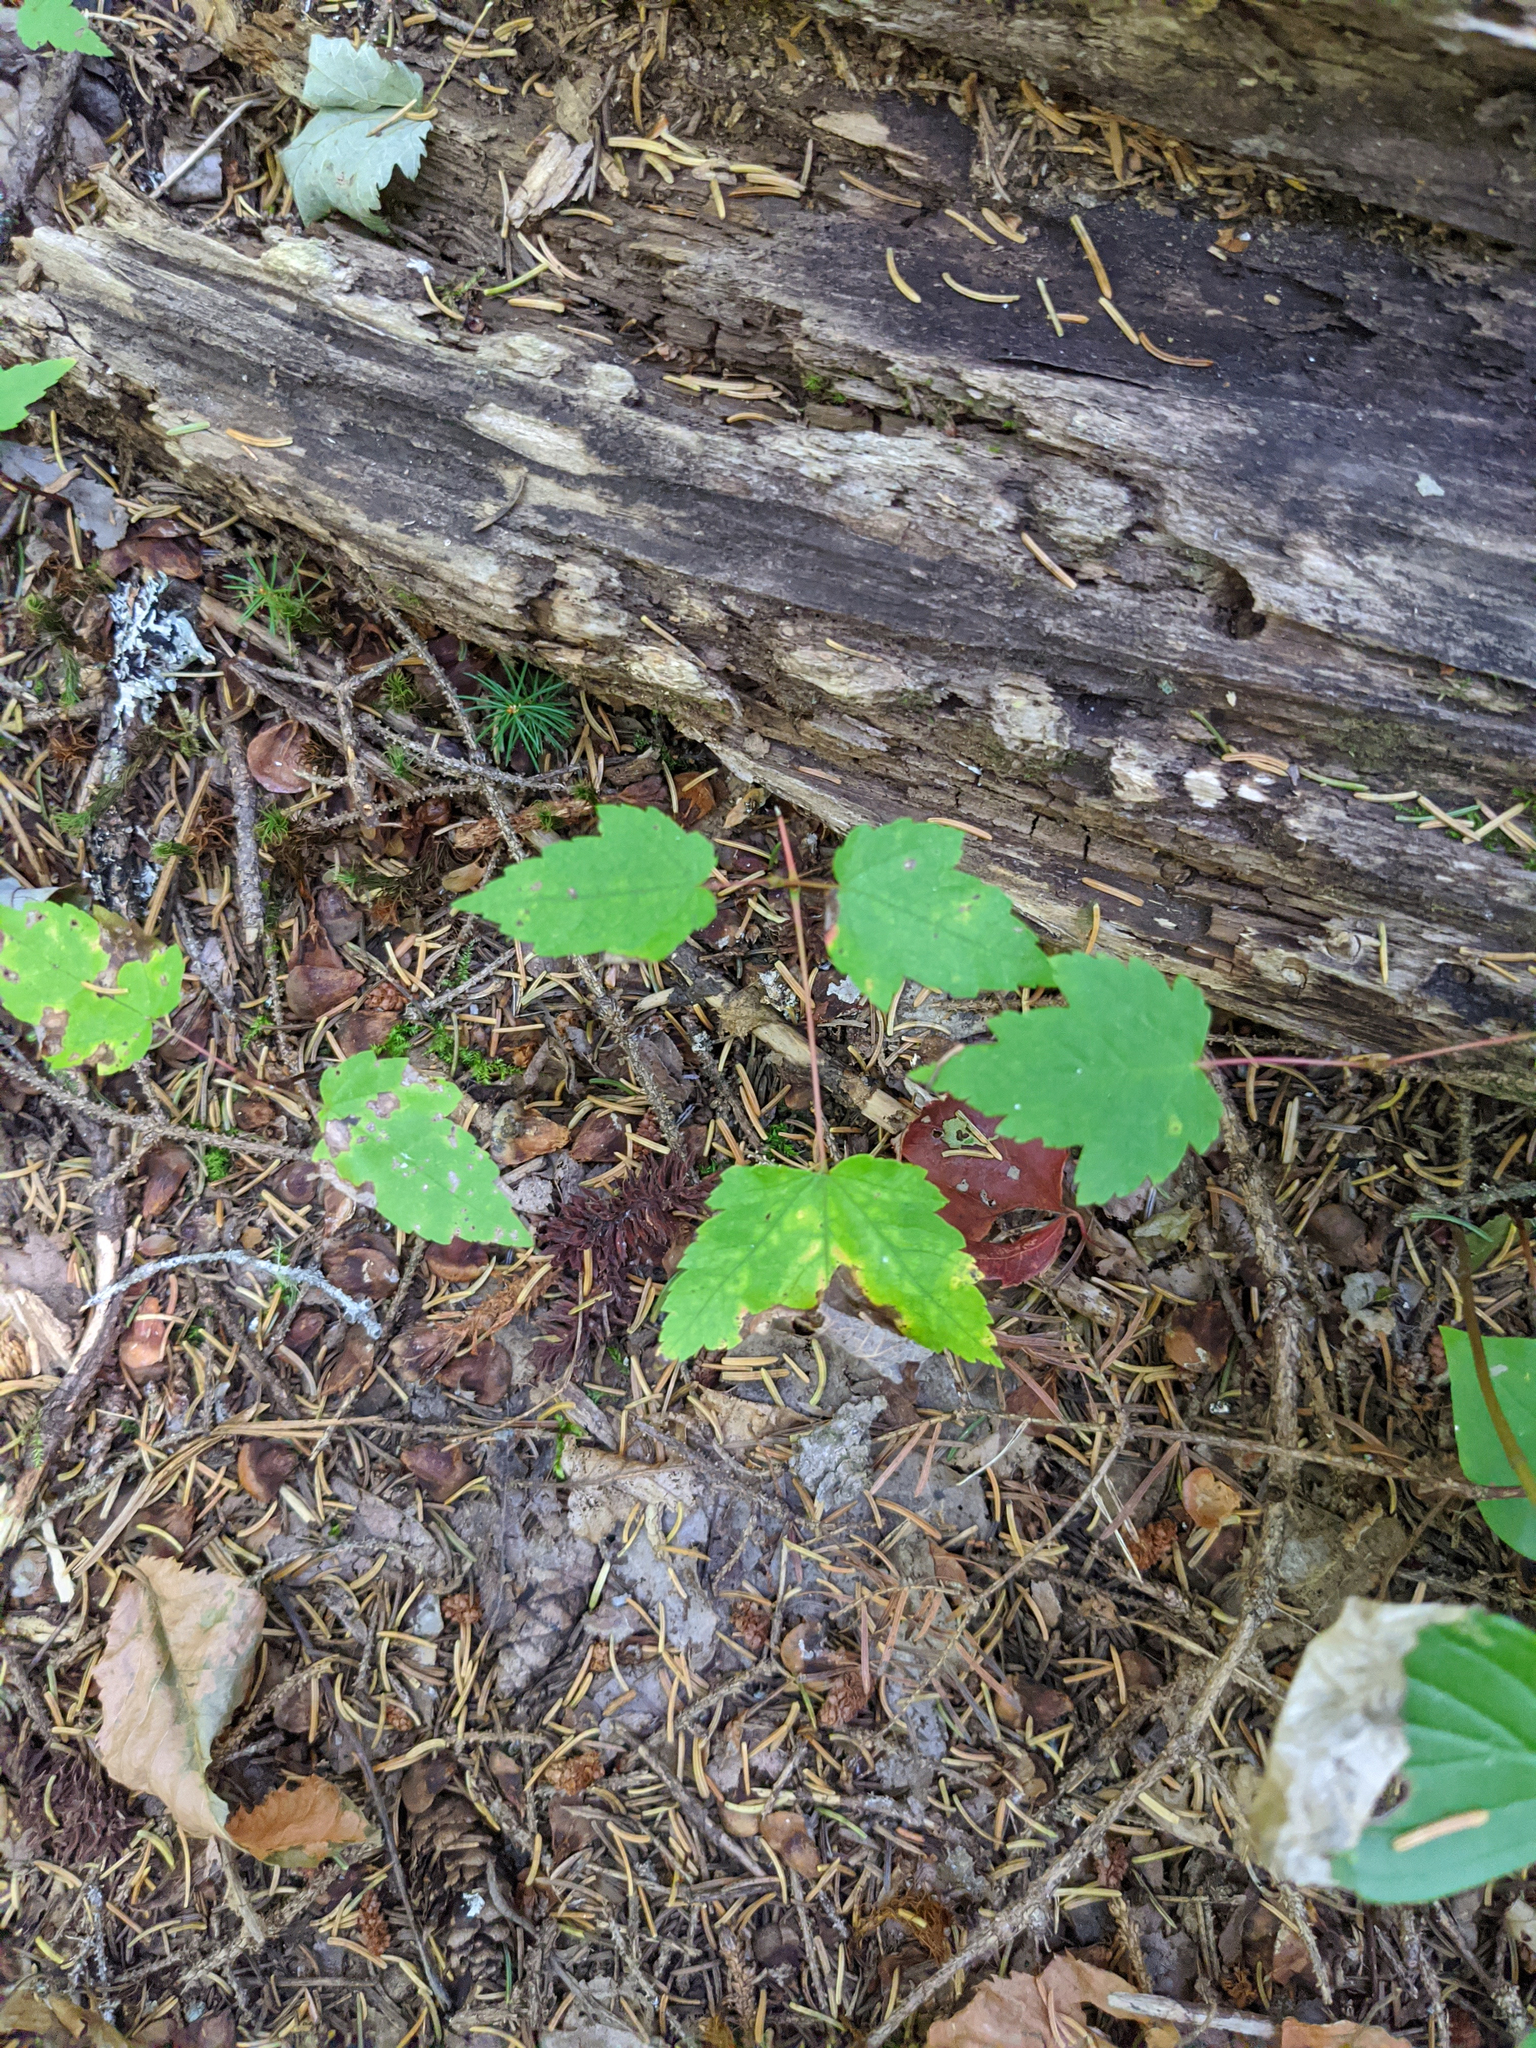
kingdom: Plantae
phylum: Tracheophyta
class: Magnoliopsida
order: Sapindales
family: Sapindaceae
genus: Acer
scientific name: Acer rubrum
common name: Red maple
